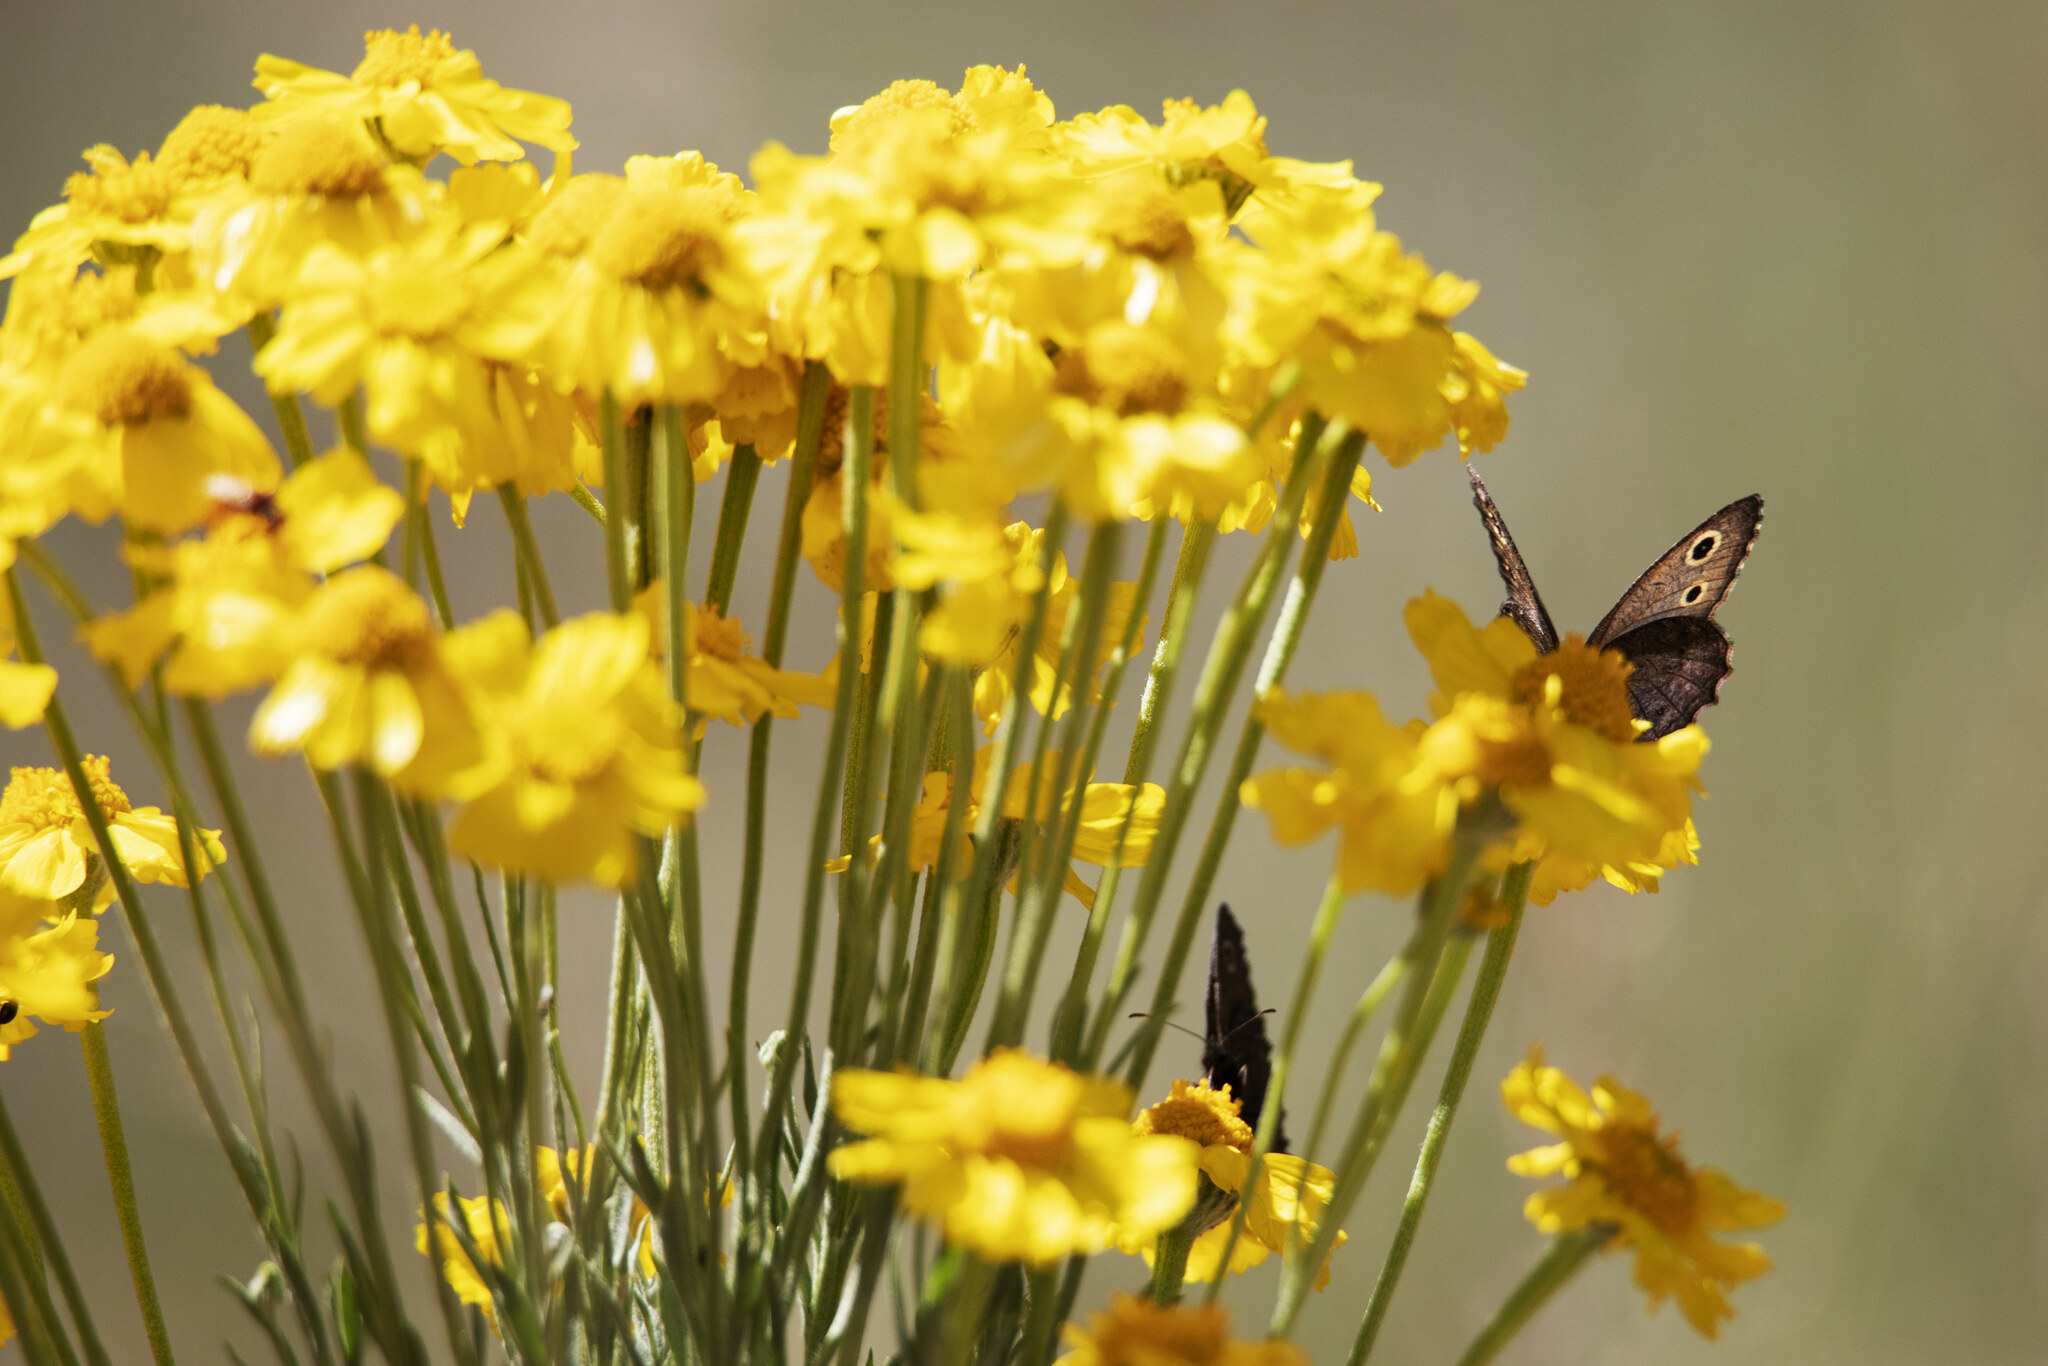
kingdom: Animalia
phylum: Arthropoda
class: Insecta
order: Lepidoptera
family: Nymphalidae
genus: Cercyonis
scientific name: Cercyonis oetus
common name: Small wood-nymph
